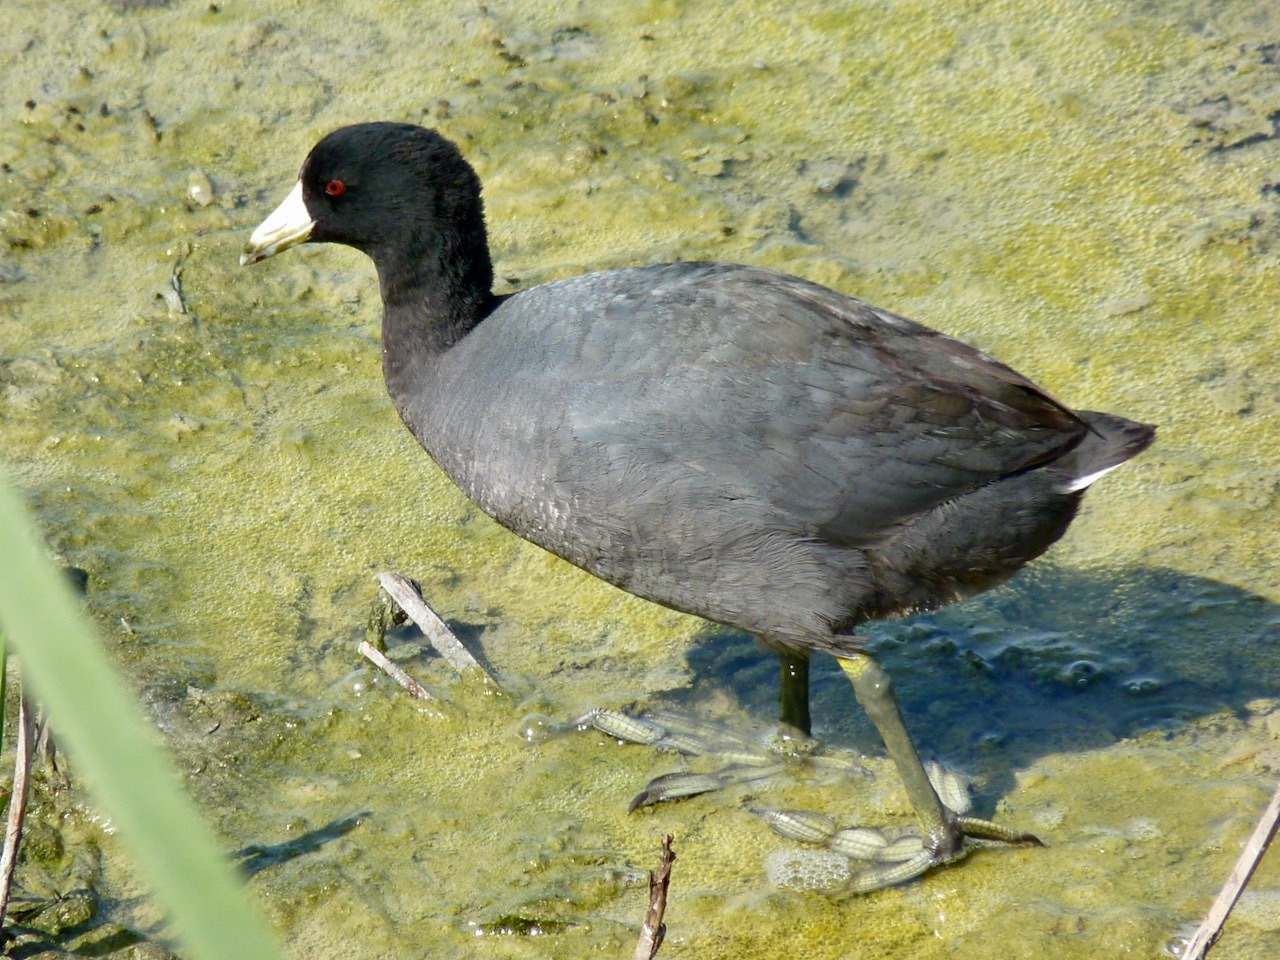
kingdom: Animalia
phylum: Chordata
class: Aves
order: Gruiformes
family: Rallidae
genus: Fulica
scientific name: Fulica americana
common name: American coot
